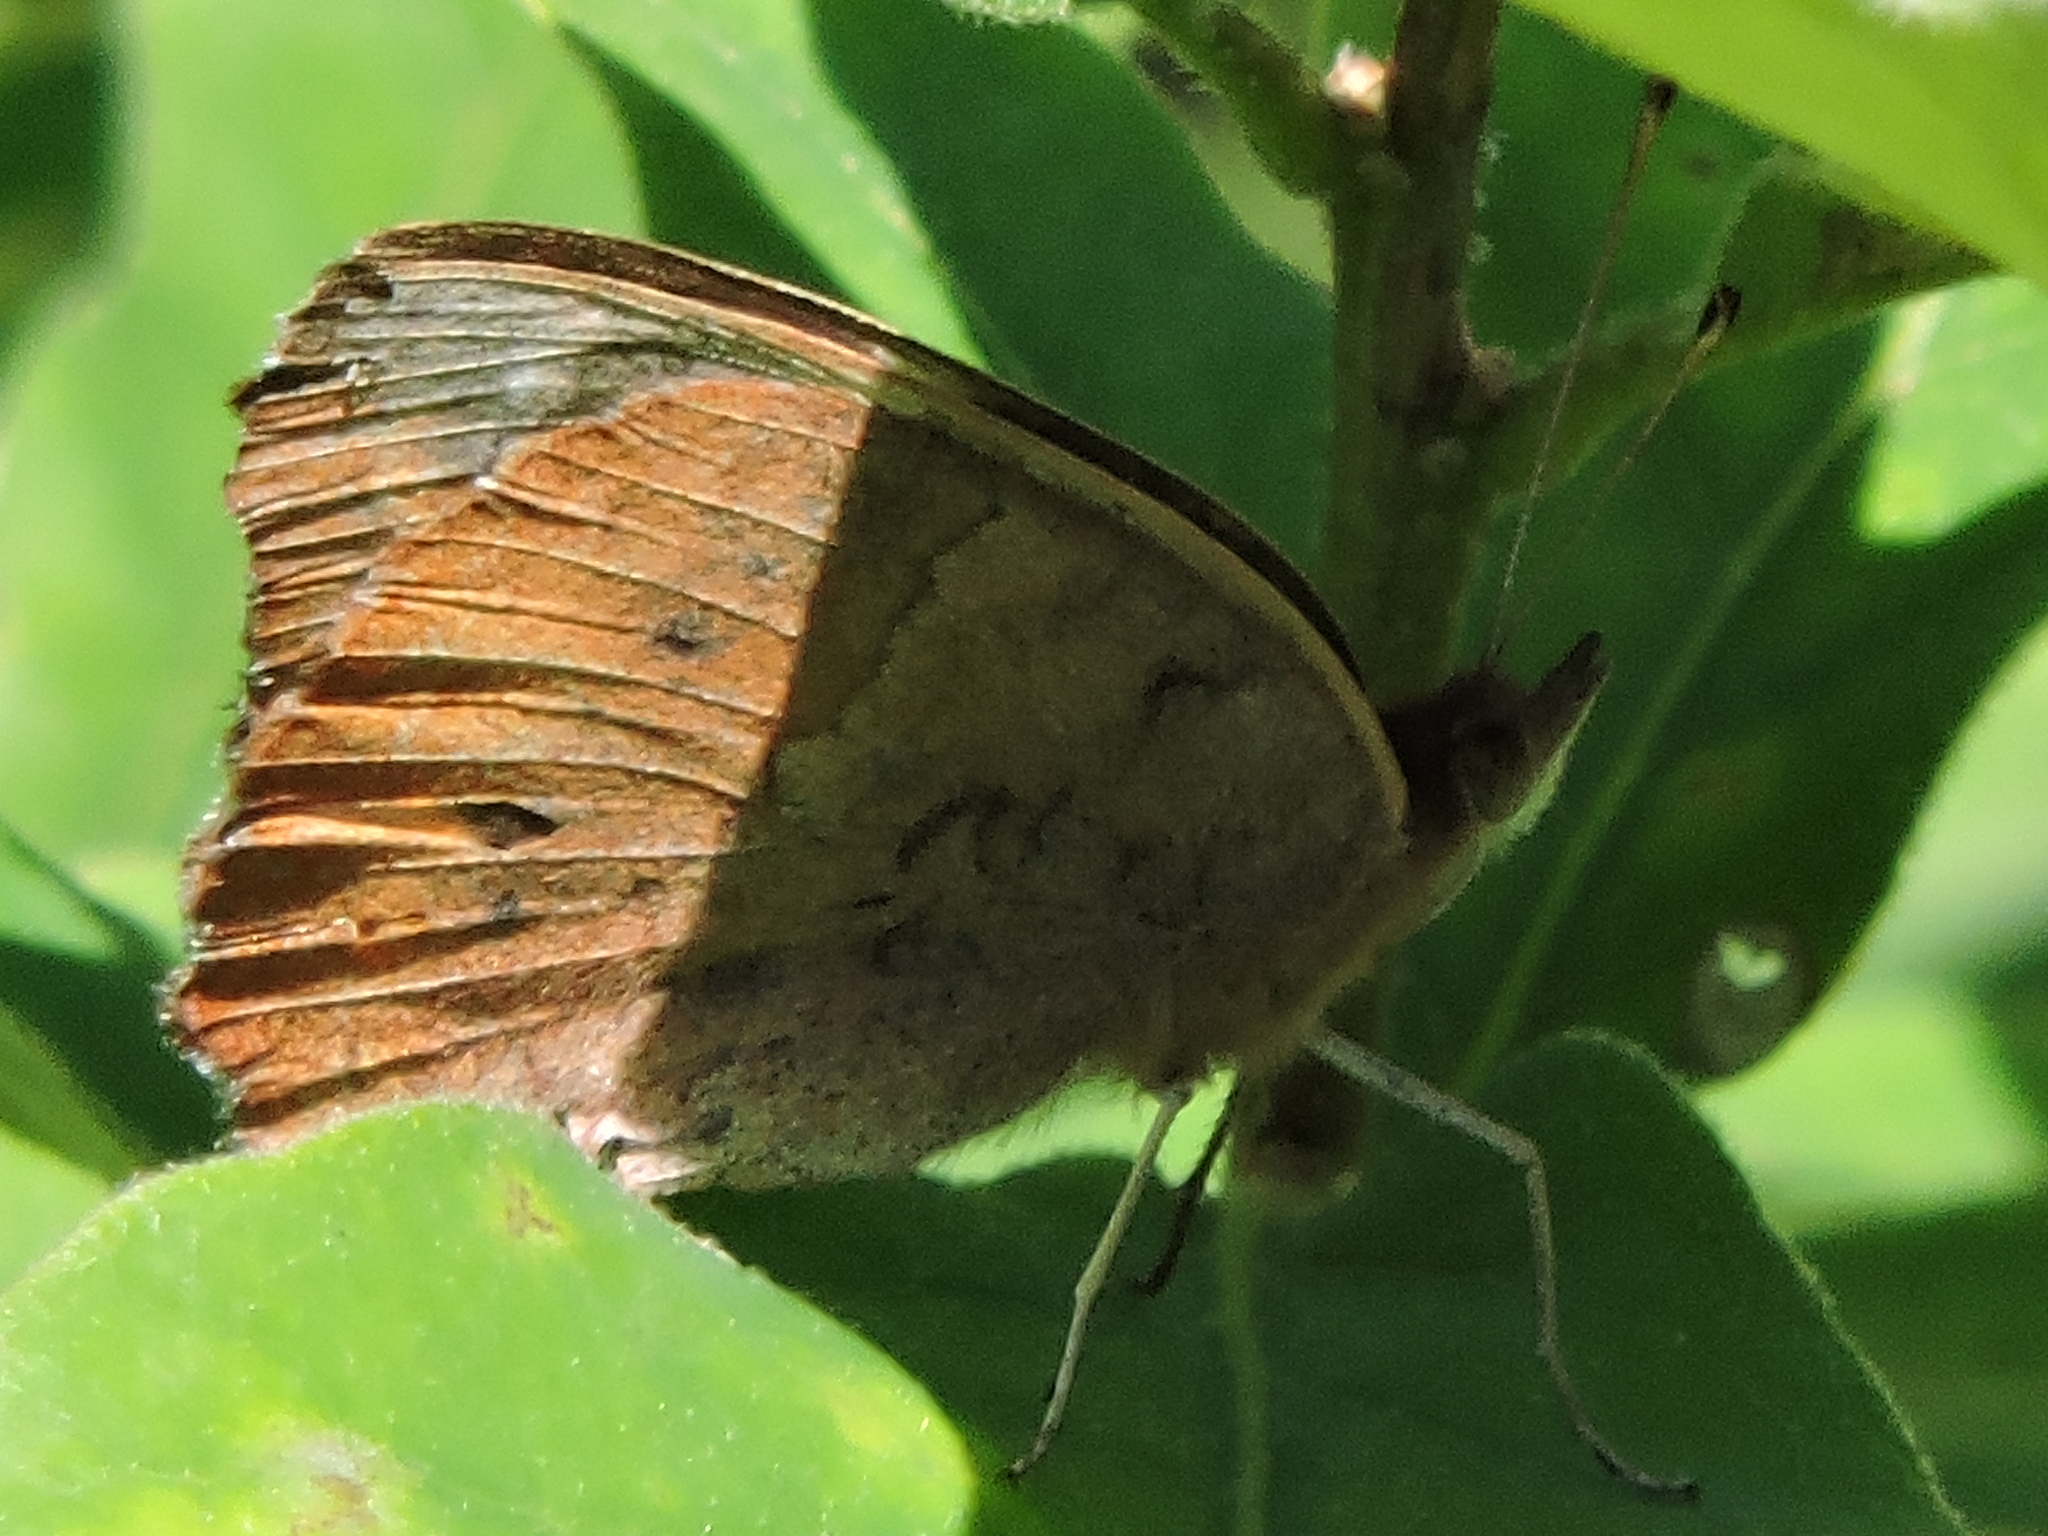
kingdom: Animalia
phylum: Arthropoda
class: Insecta
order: Lepidoptera
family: Nymphalidae
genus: Junonia
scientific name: Junonia coenia
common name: Common buckeye
